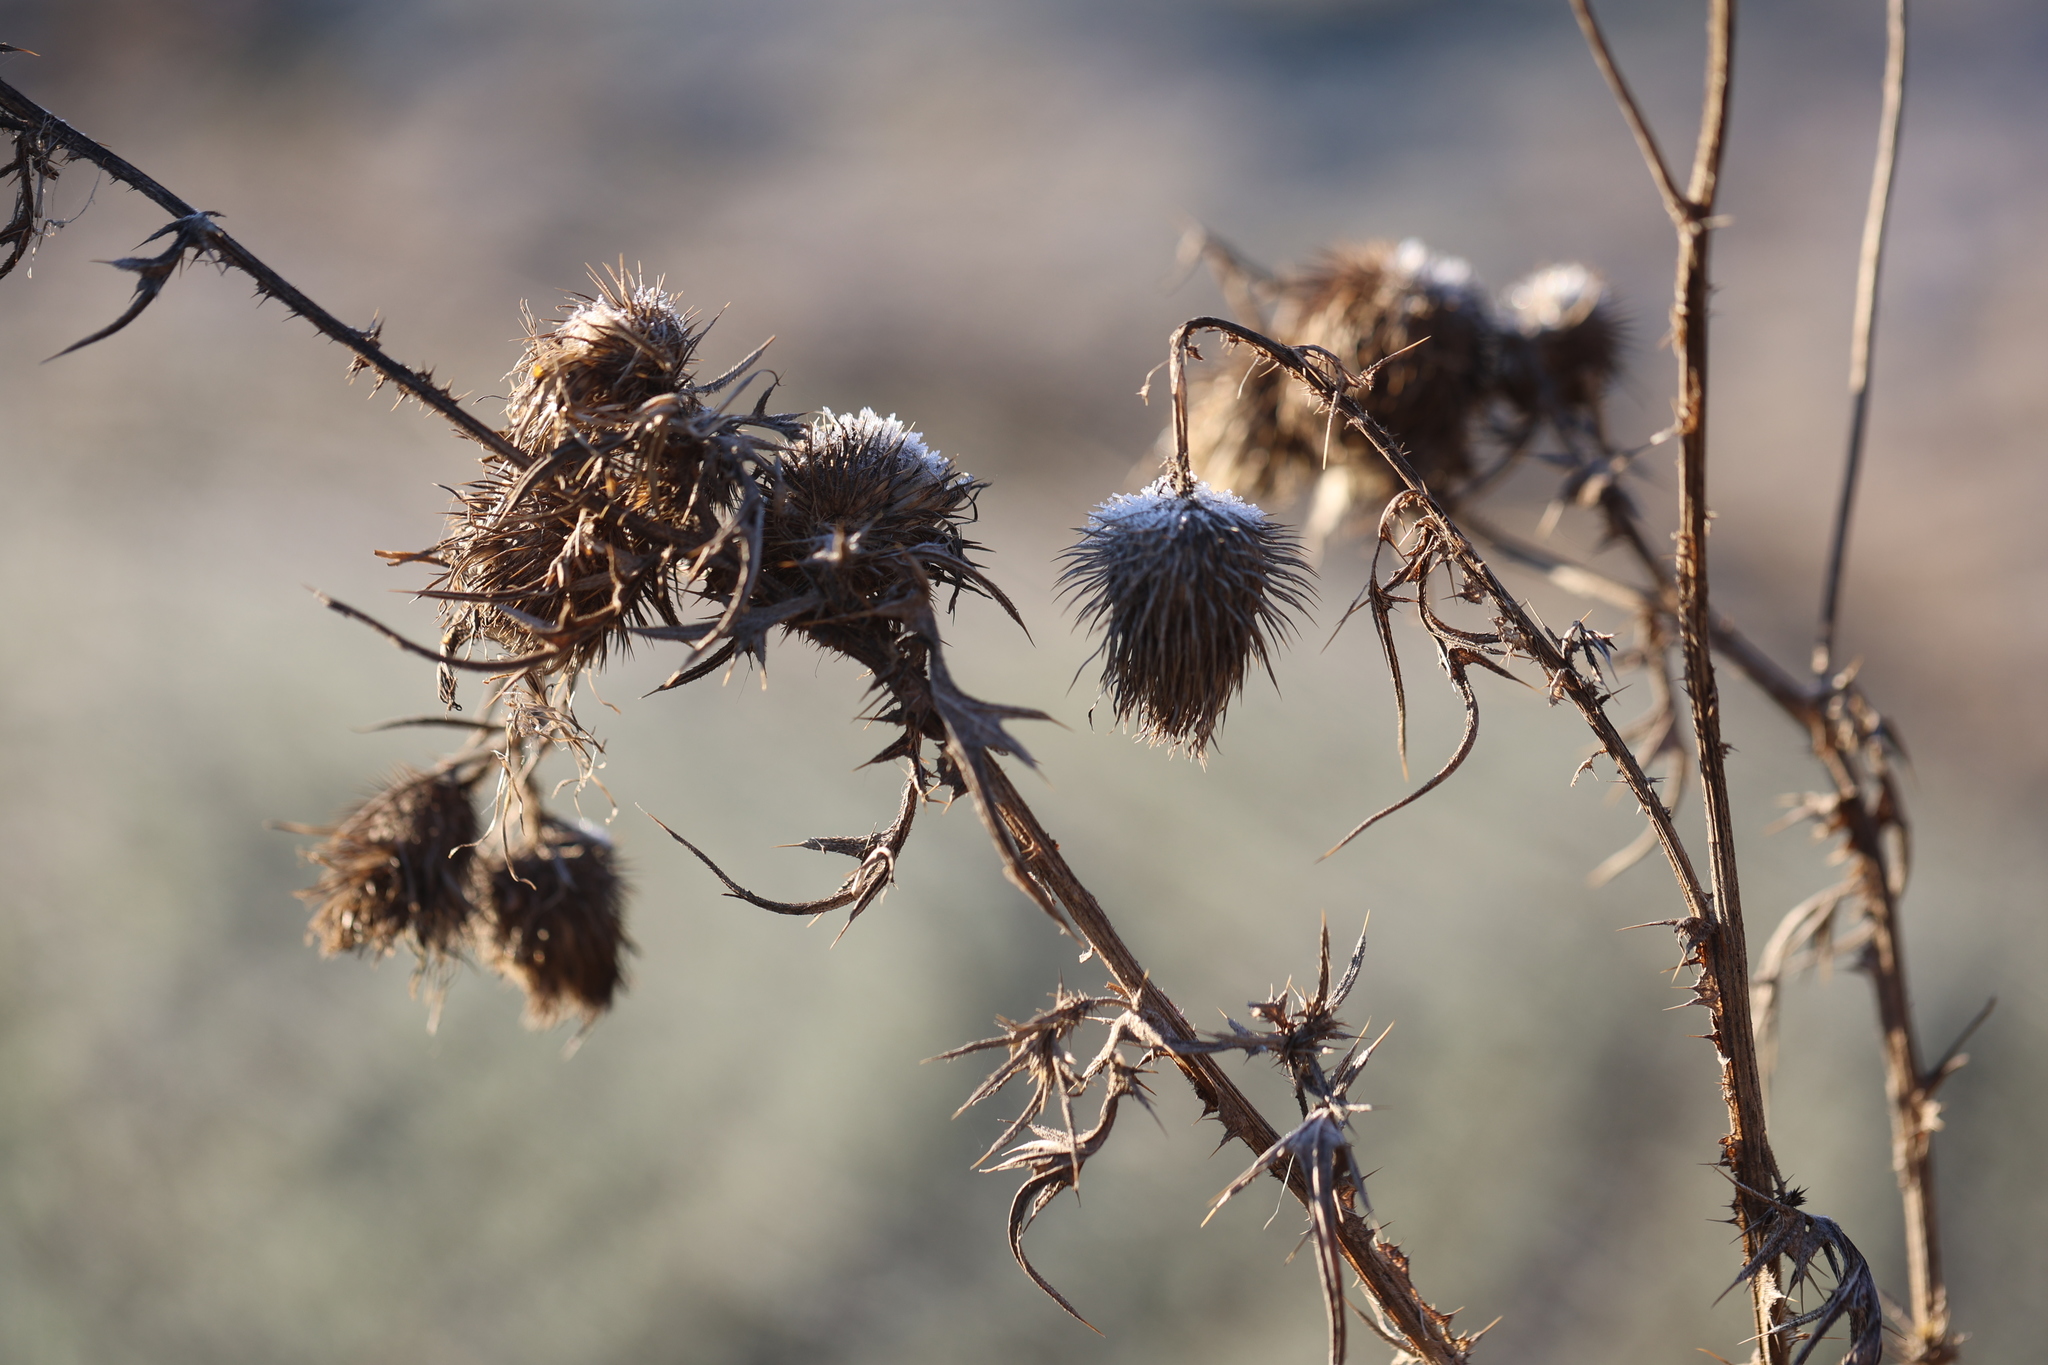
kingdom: Plantae
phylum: Tracheophyta
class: Magnoliopsida
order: Asterales
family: Asteraceae
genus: Cirsium
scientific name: Cirsium vulgare
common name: Bull thistle
